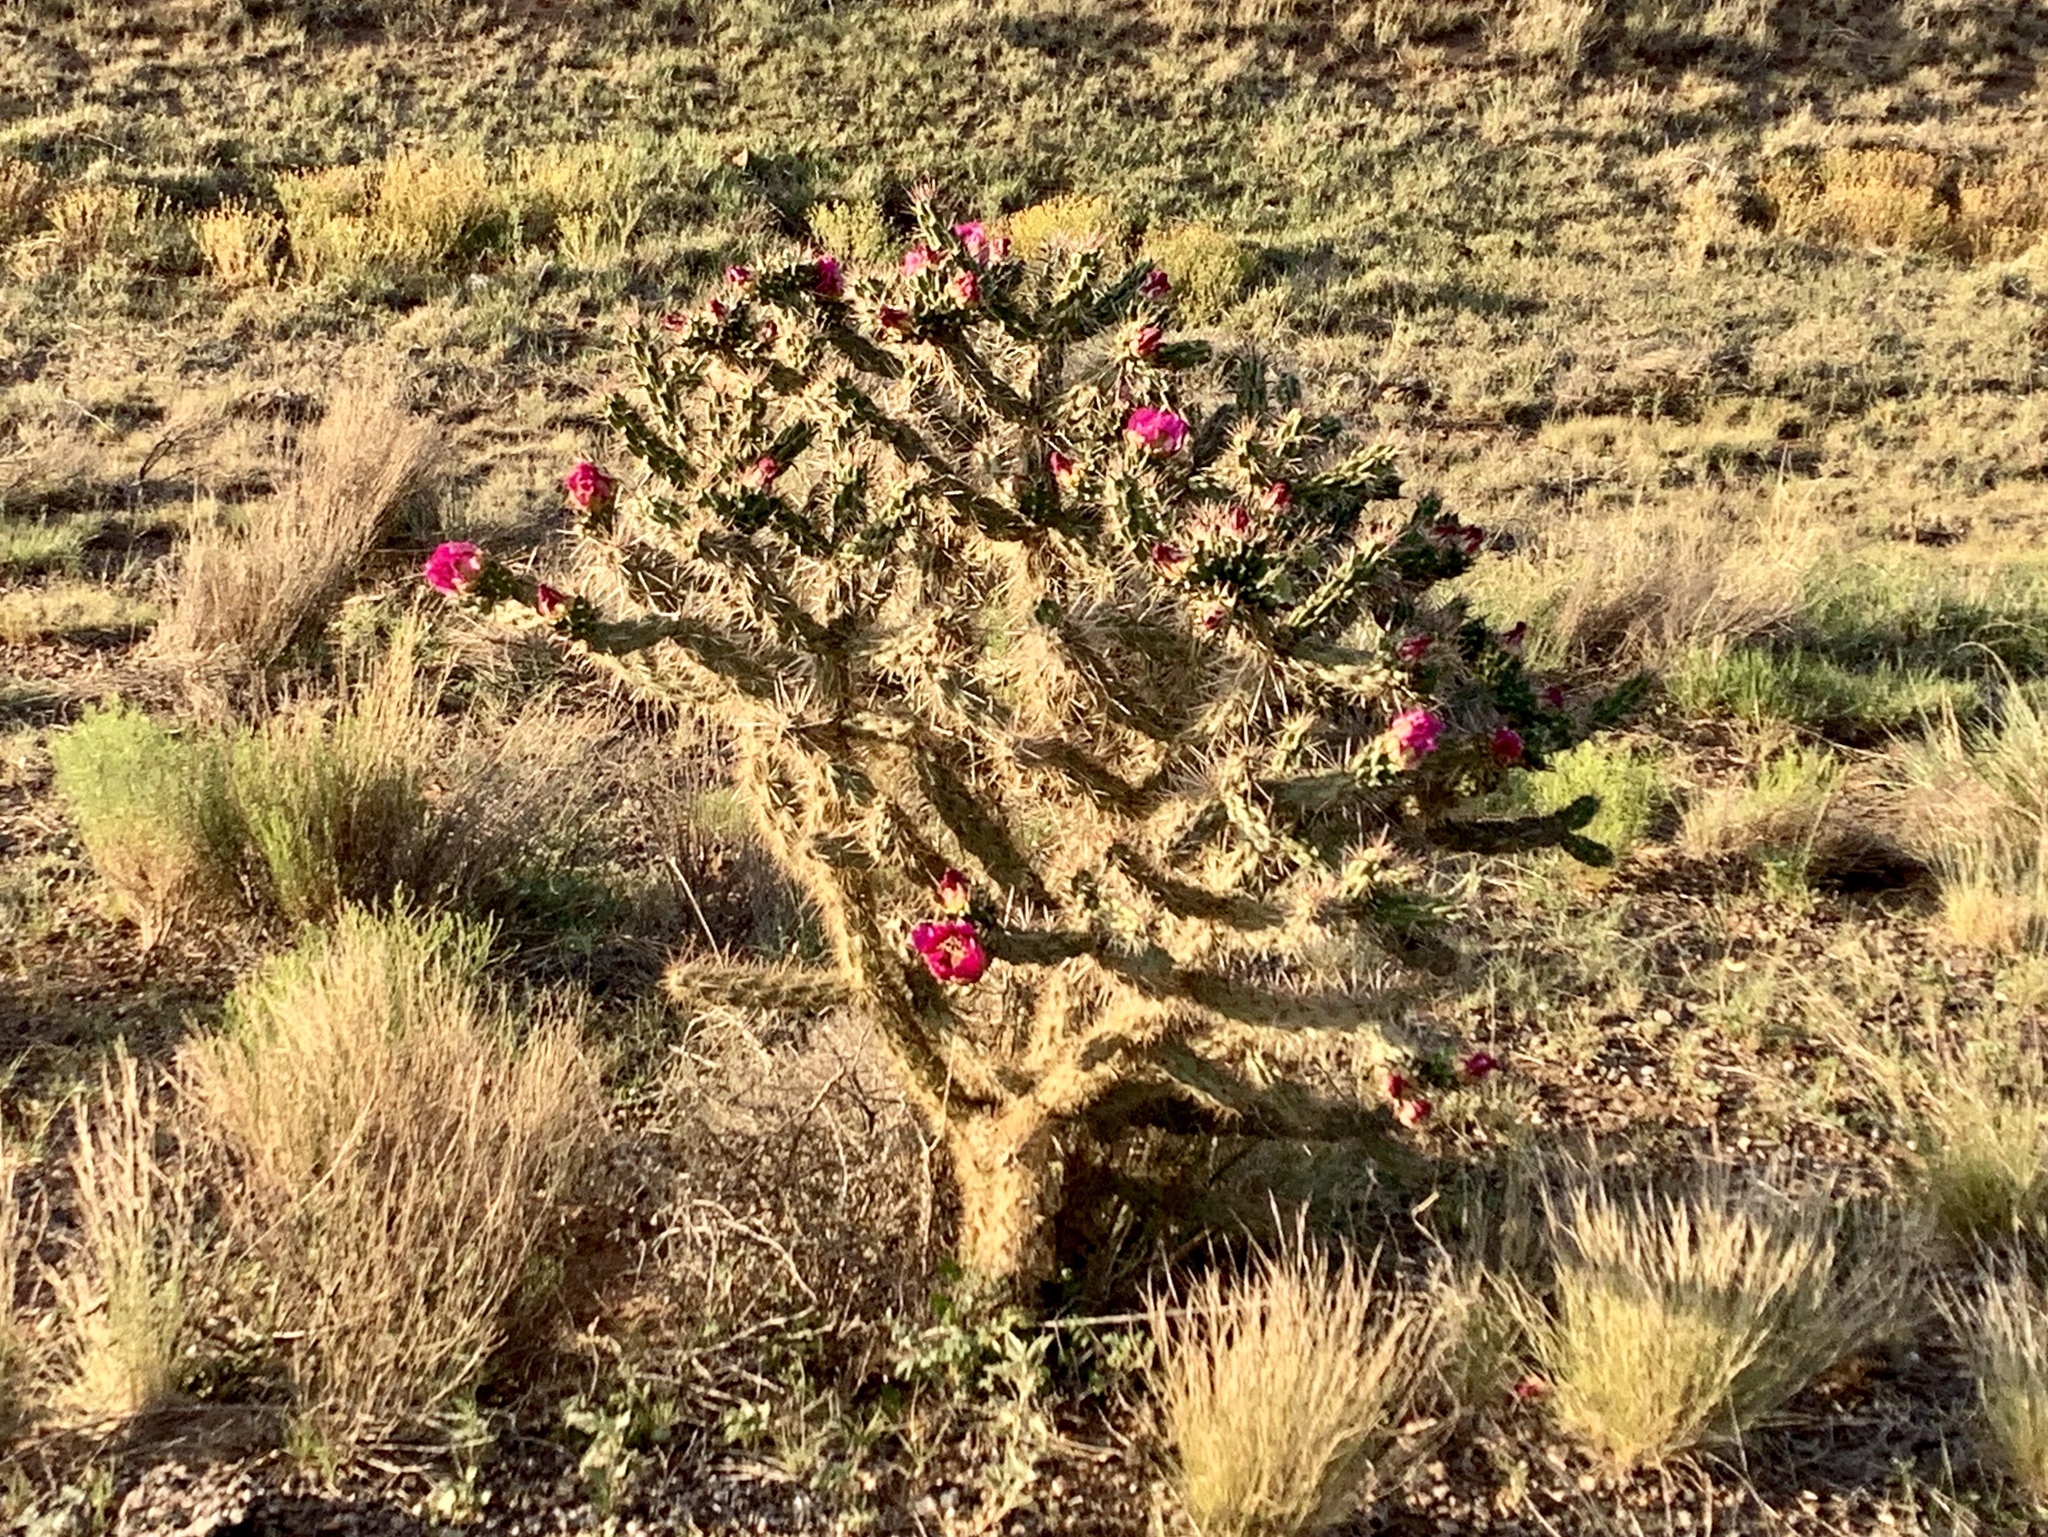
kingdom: Plantae
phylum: Tracheophyta
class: Magnoliopsida
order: Caryophyllales
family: Cactaceae
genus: Cylindropuntia
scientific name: Cylindropuntia imbricata
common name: Candelabrum cactus
